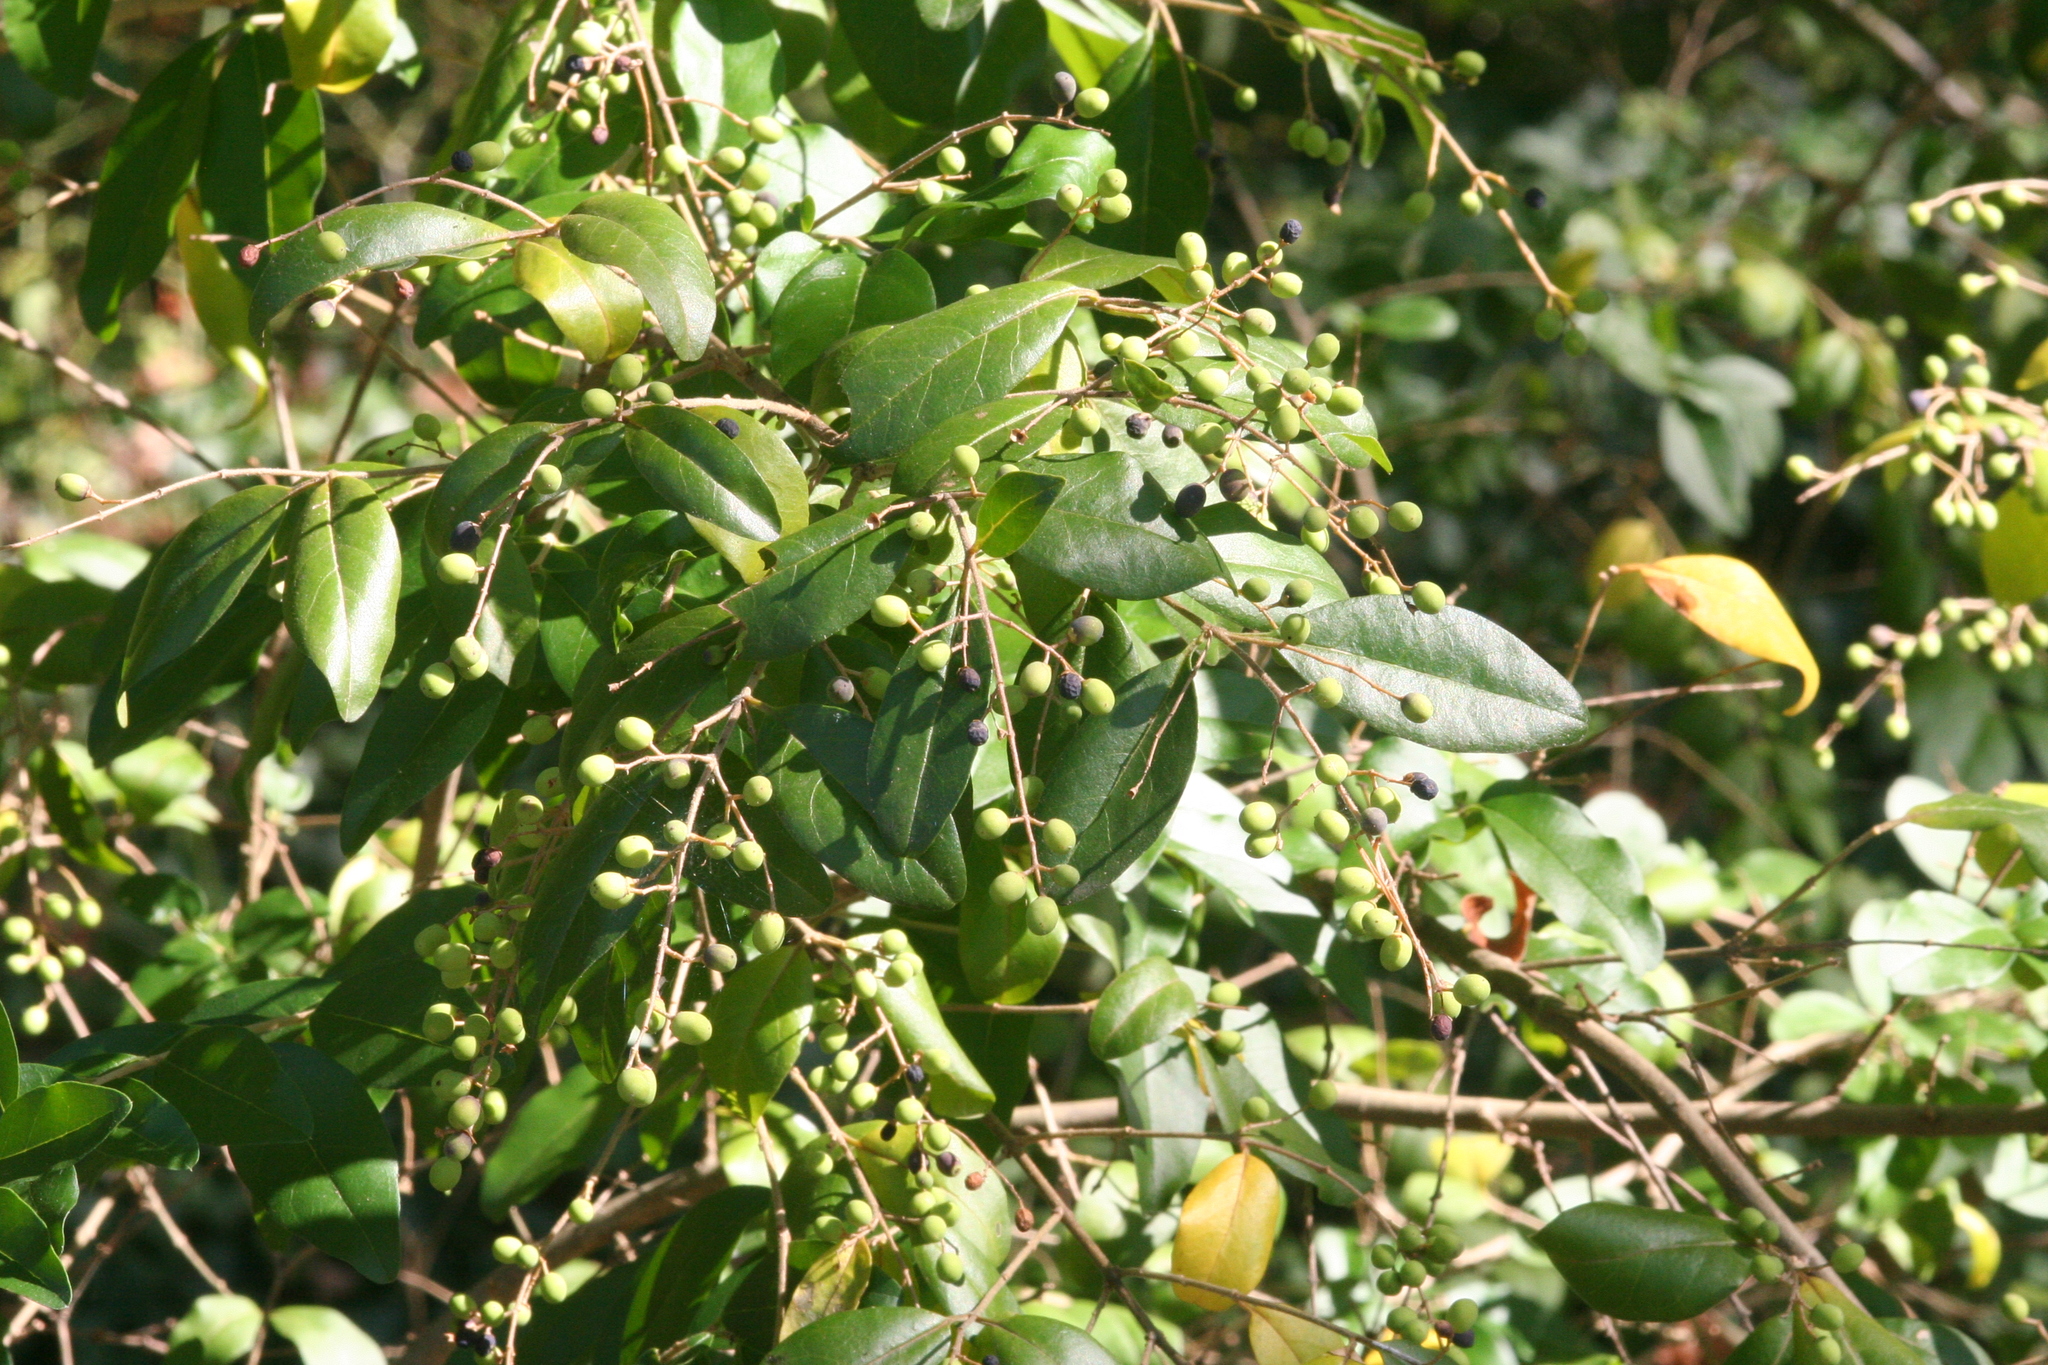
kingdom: Plantae
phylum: Tracheophyta
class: Magnoliopsida
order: Lamiales
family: Oleaceae
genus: Ligustrum
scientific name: Ligustrum sinense
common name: Chinese privet
